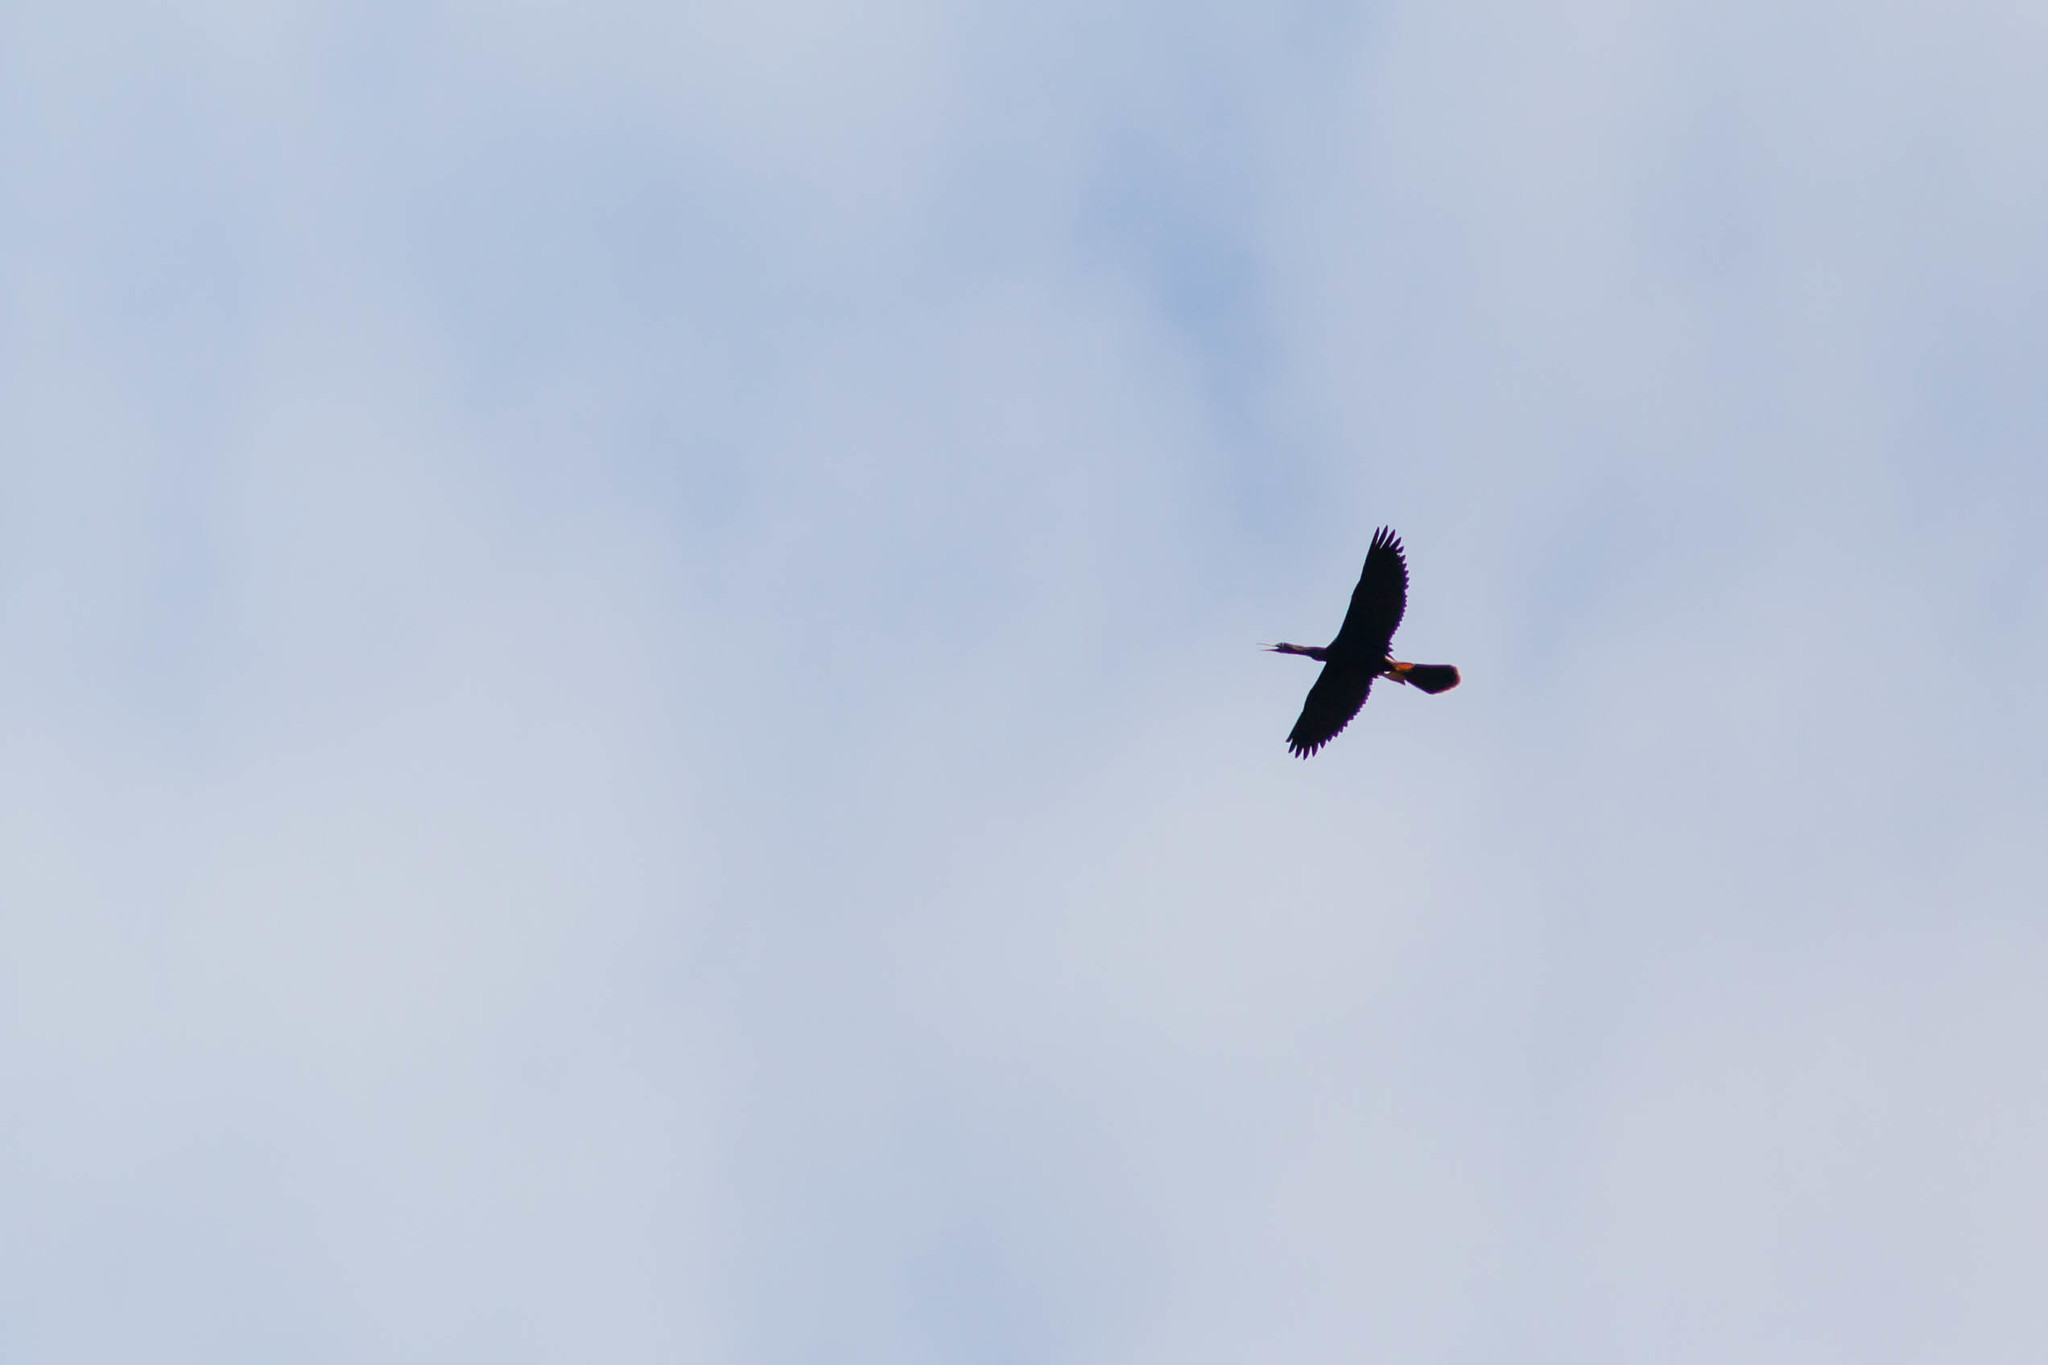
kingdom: Animalia
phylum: Chordata
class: Aves
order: Suliformes
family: Anhingidae
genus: Anhinga
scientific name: Anhinga anhinga
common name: Anhinga
